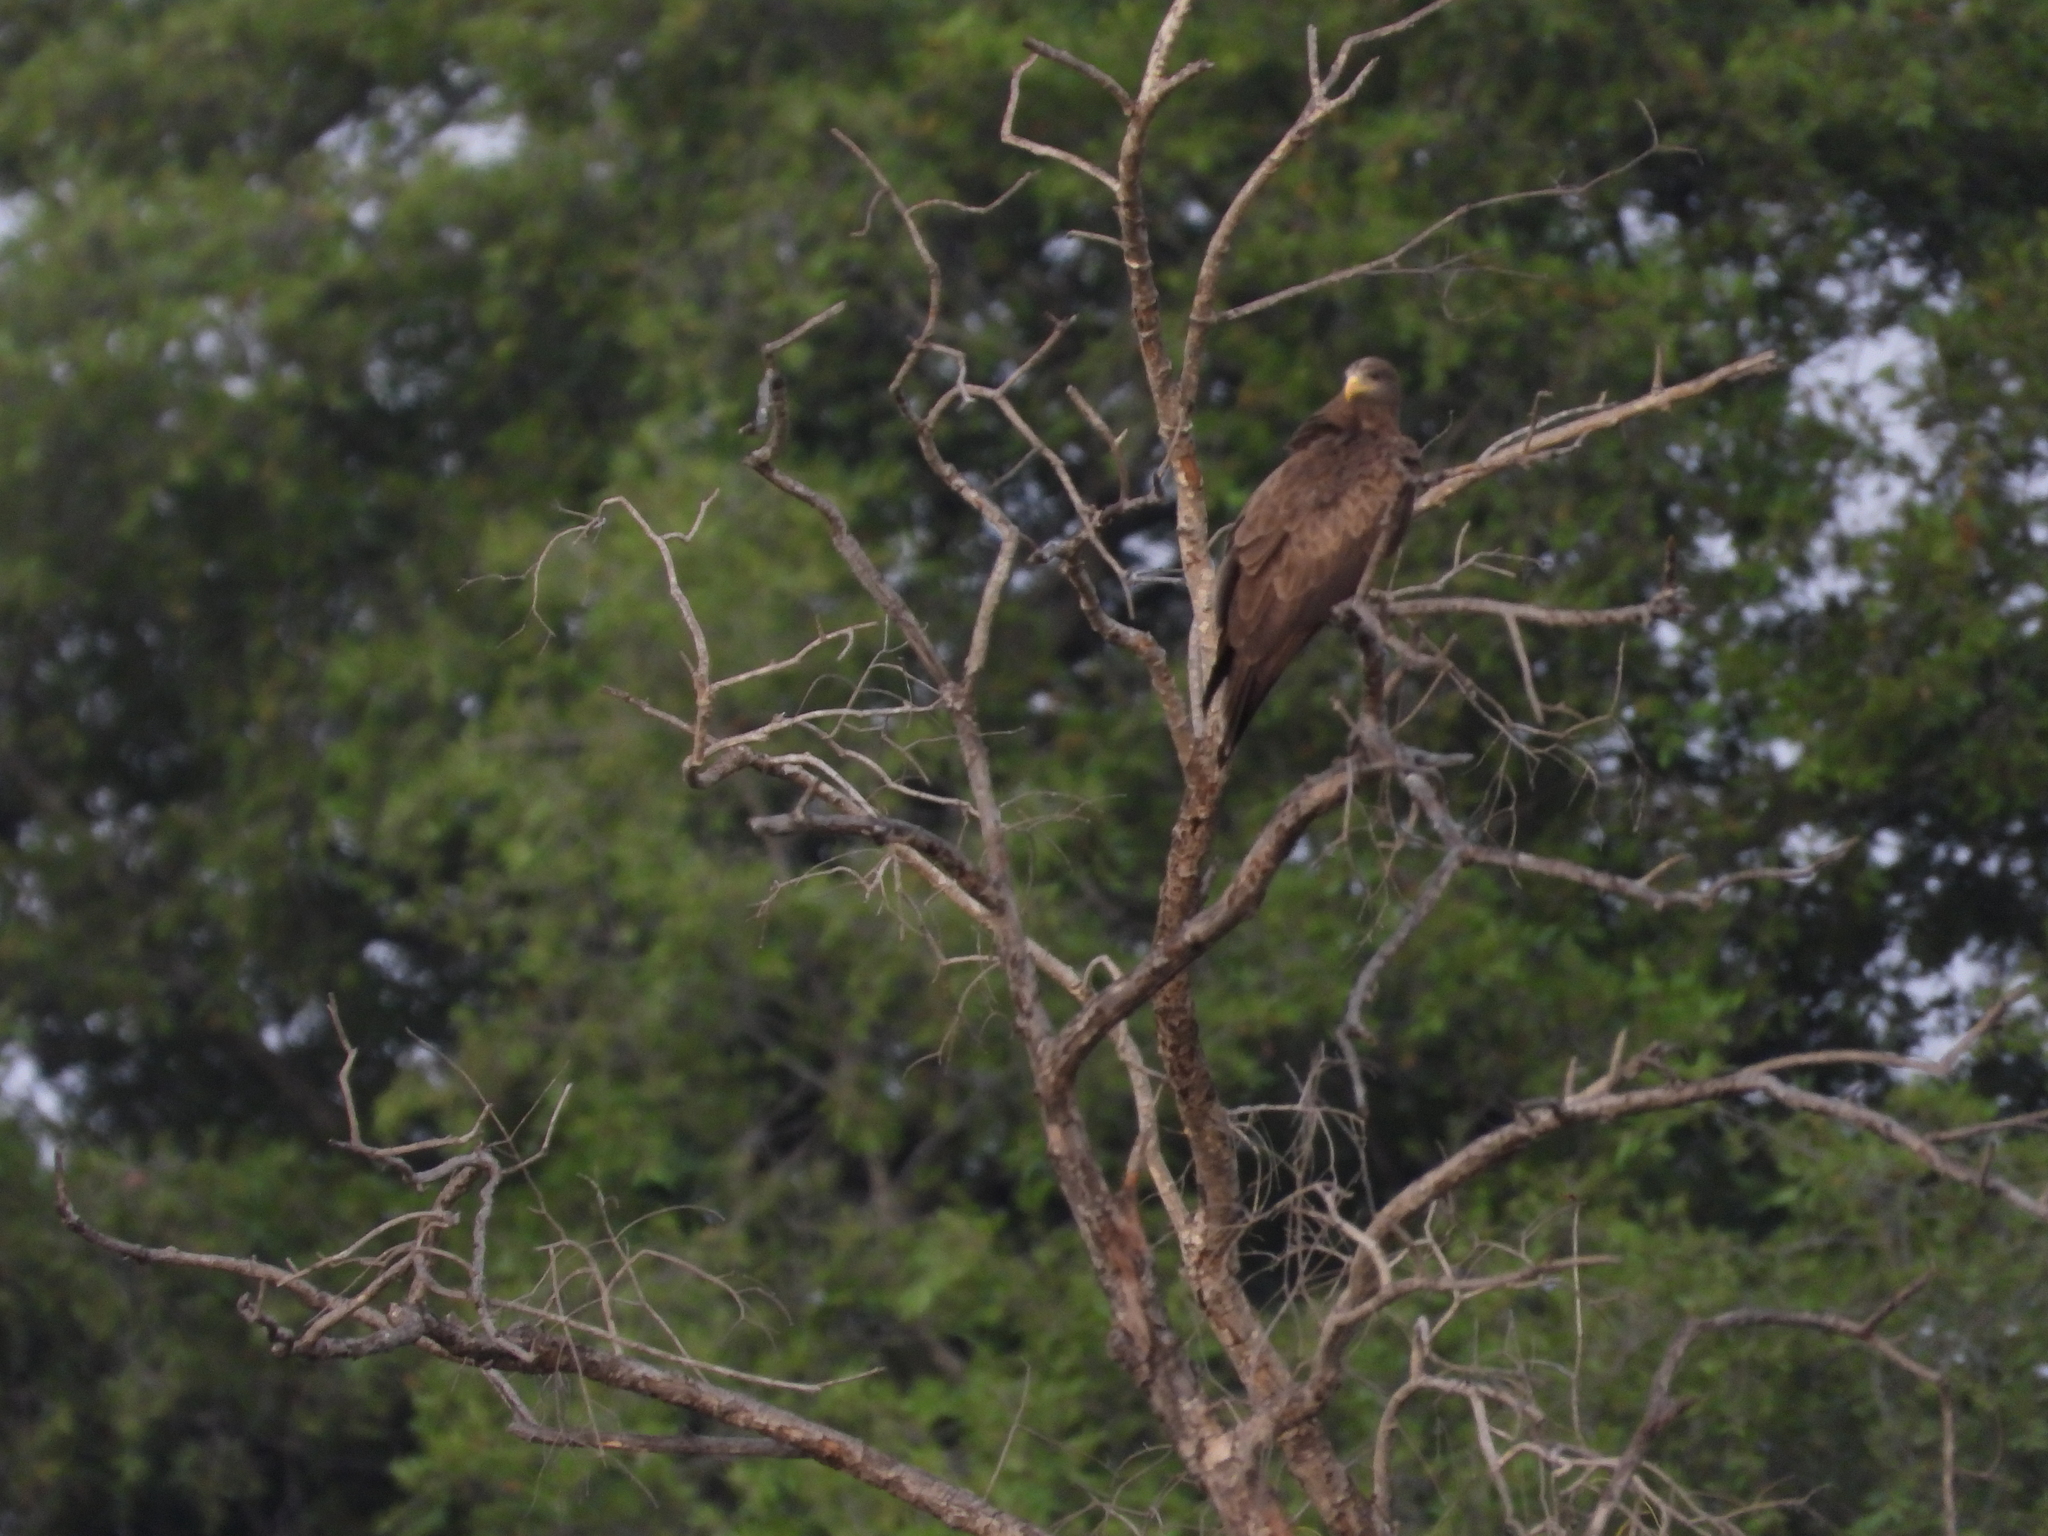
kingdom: Animalia
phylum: Chordata
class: Aves
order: Accipitriformes
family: Accipitridae
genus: Milvus
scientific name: Milvus migrans
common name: Black kite
